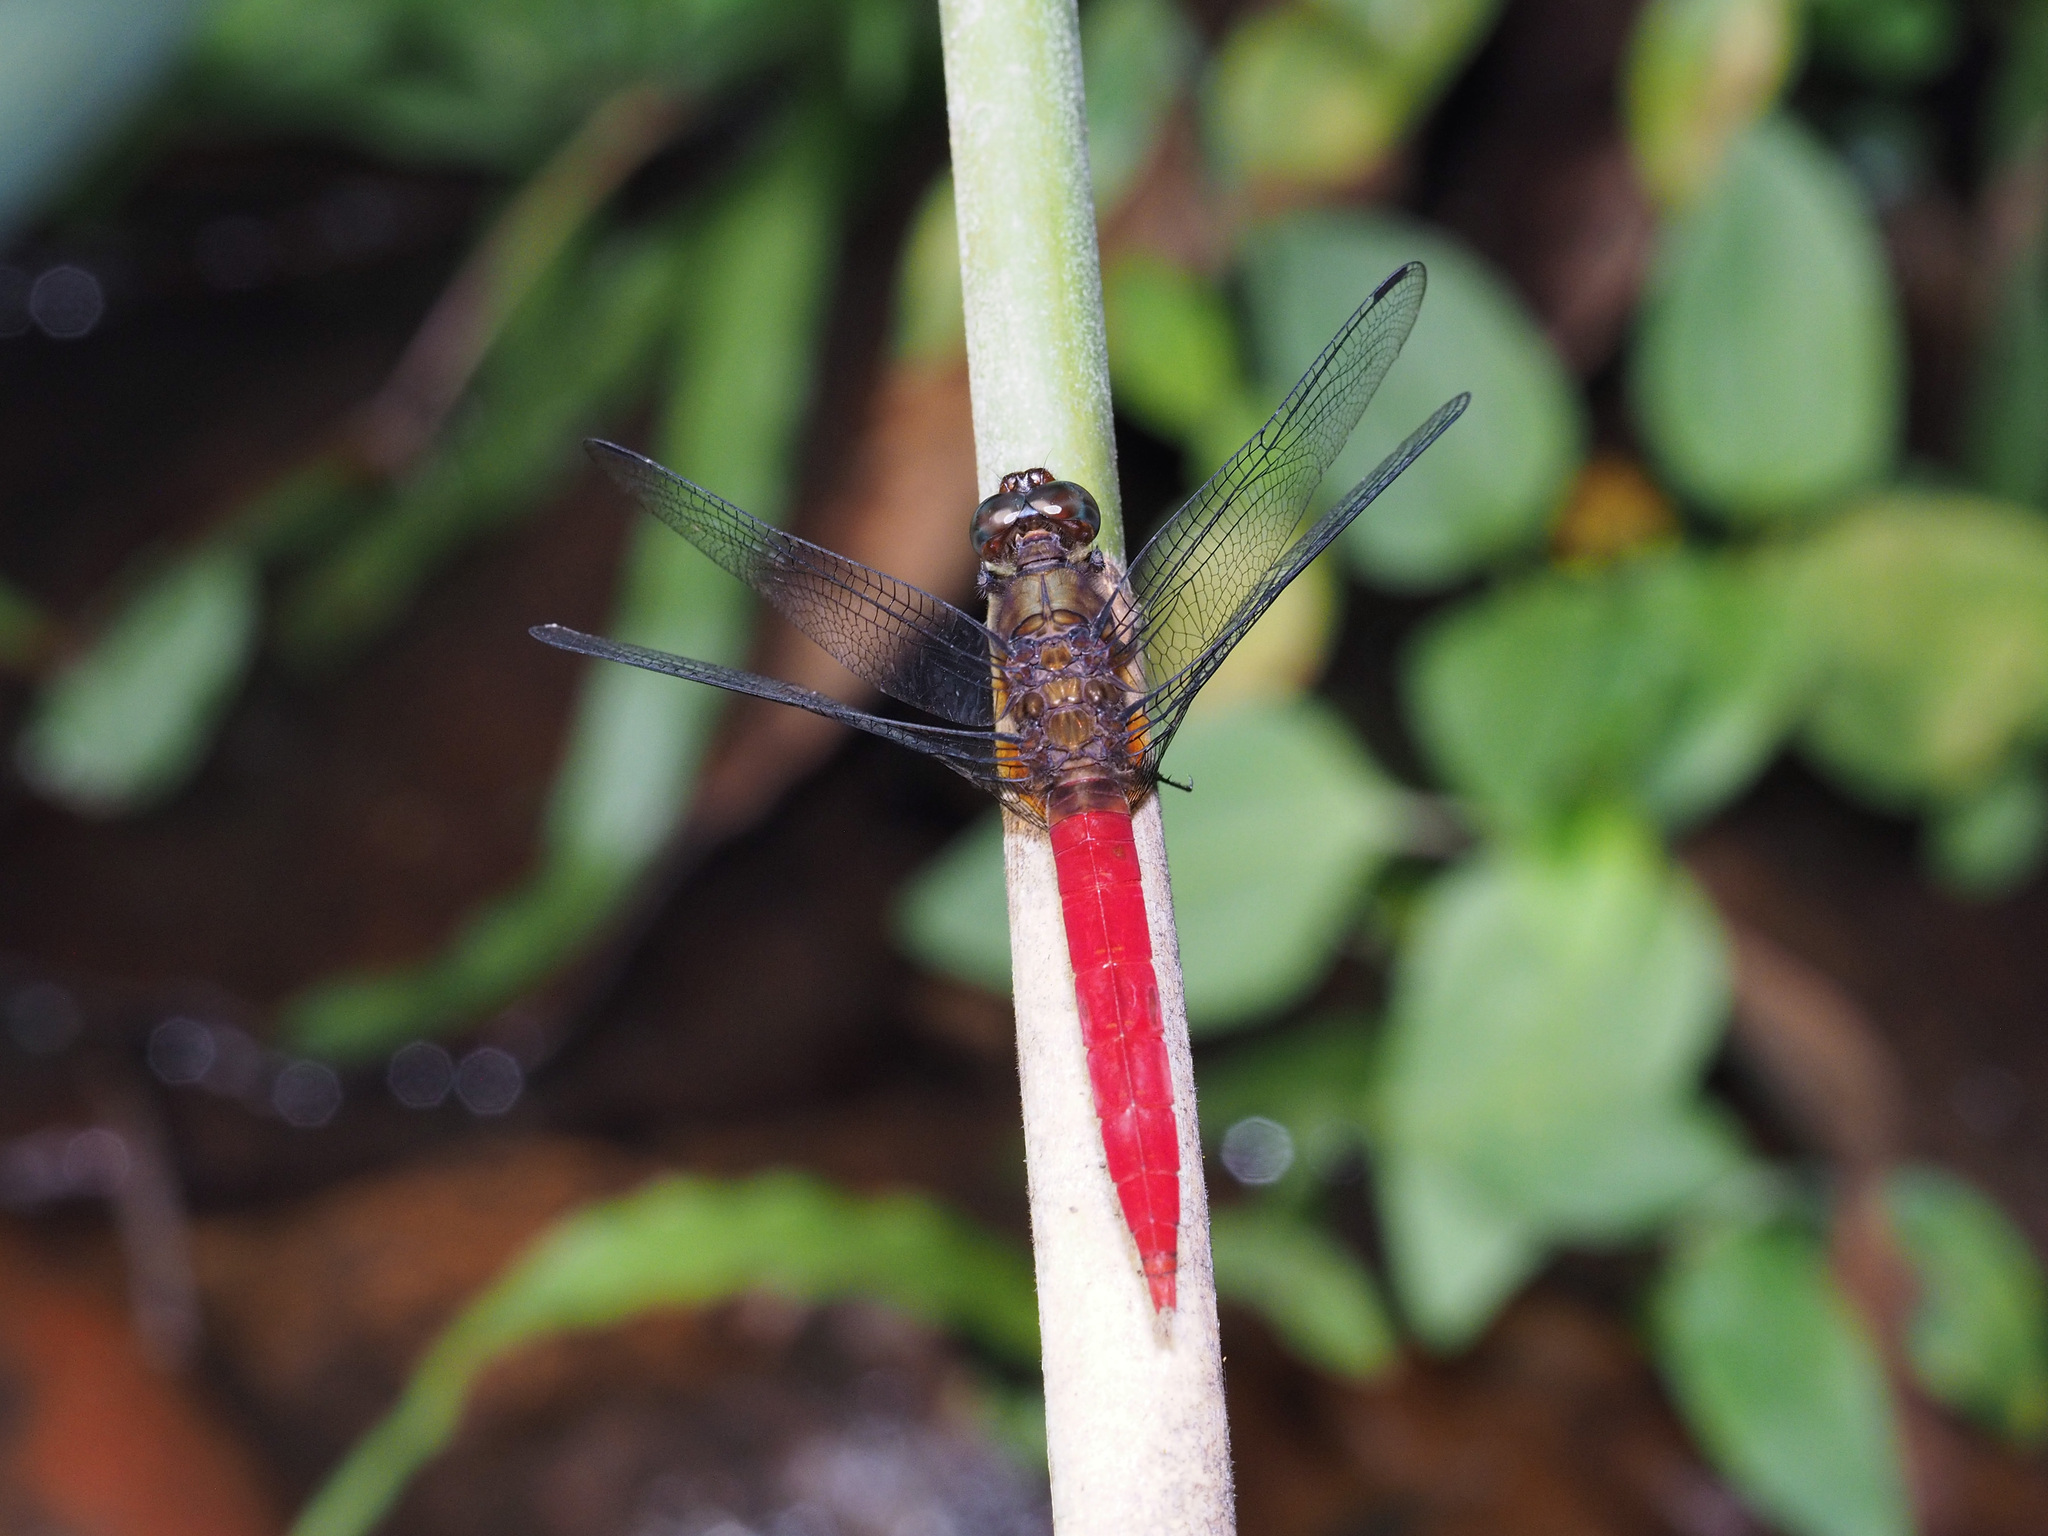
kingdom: Animalia
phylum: Arthropoda
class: Insecta
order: Odonata
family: Libellulidae
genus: Orthetrum
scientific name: Orthetrum chrysis
